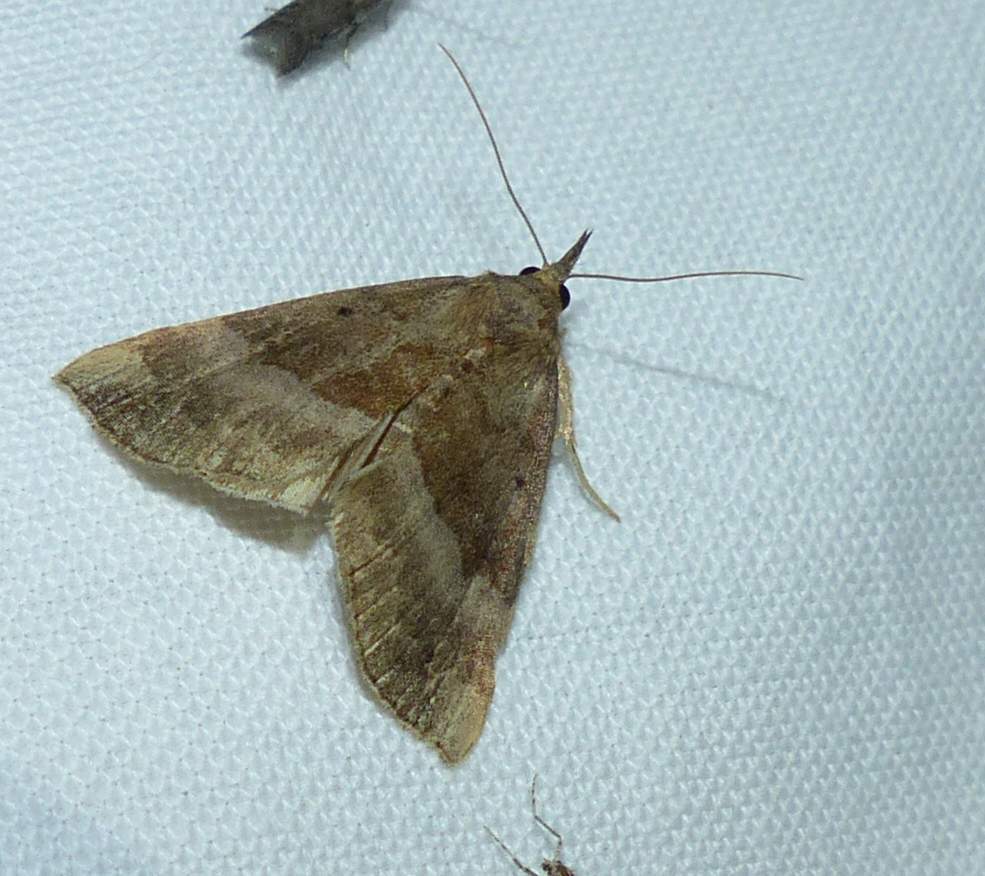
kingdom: Animalia
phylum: Arthropoda
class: Insecta
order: Lepidoptera
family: Erebidae
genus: Hypena
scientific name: Hypena madefactalis
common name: Gray-edged snout
